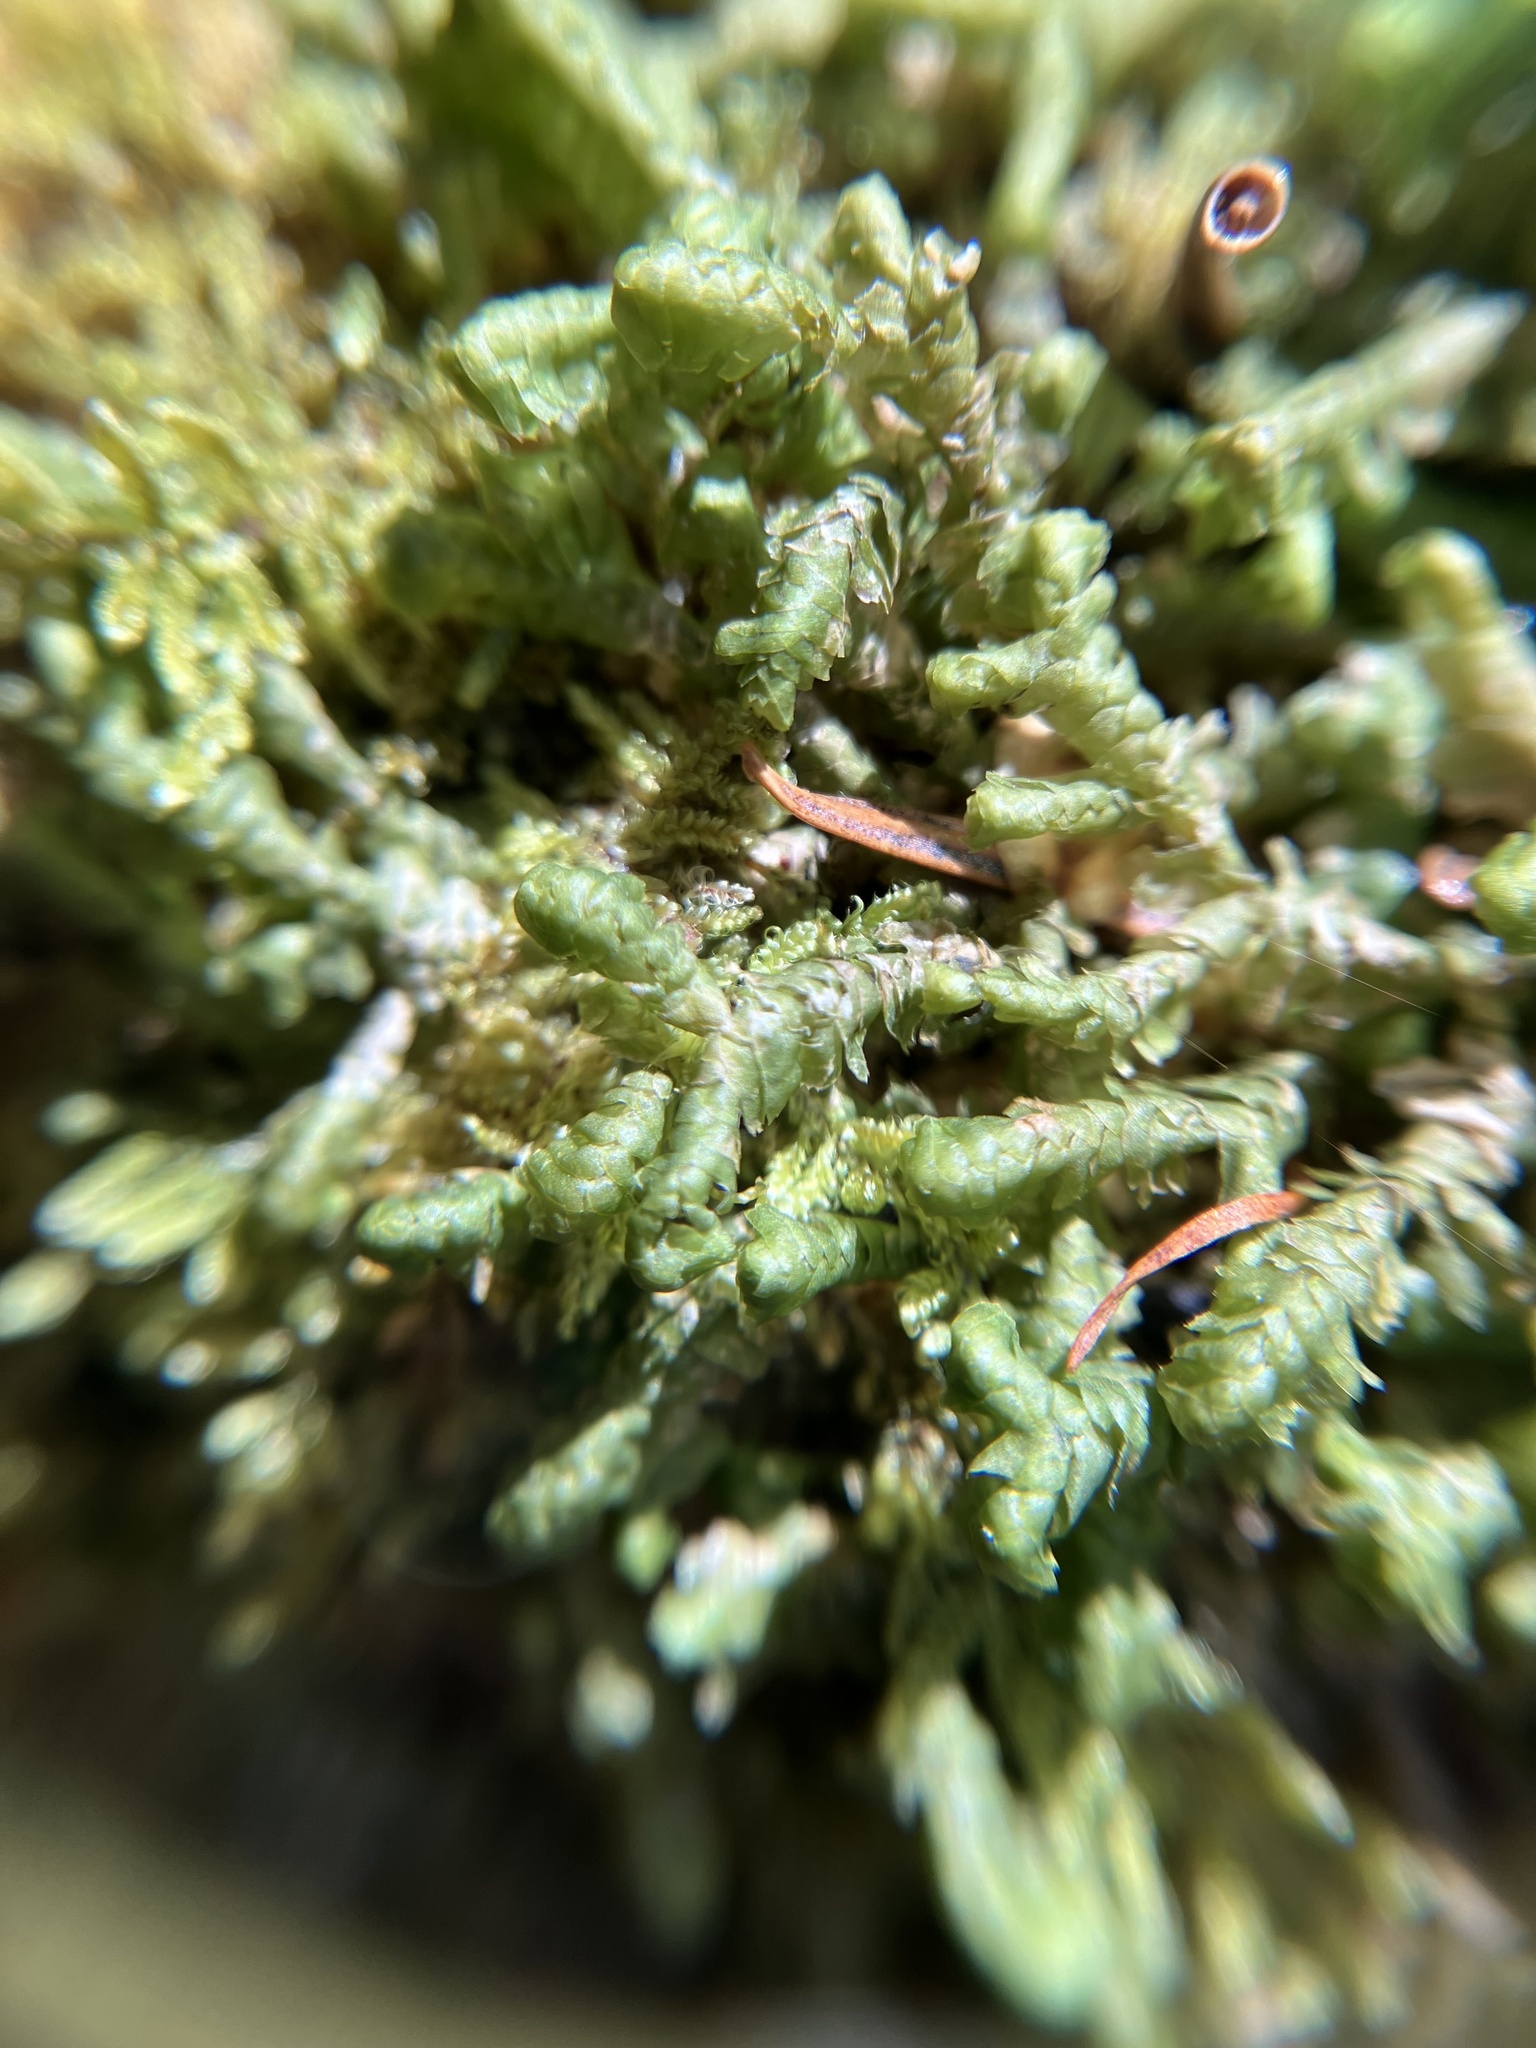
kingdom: Plantae
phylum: Marchantiophyta
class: Jungermanniopsida
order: Jungermanniales
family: Lepidoziaceae
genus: Bazzania
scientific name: Bazzania trilobata
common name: Three-lobed whipwort
